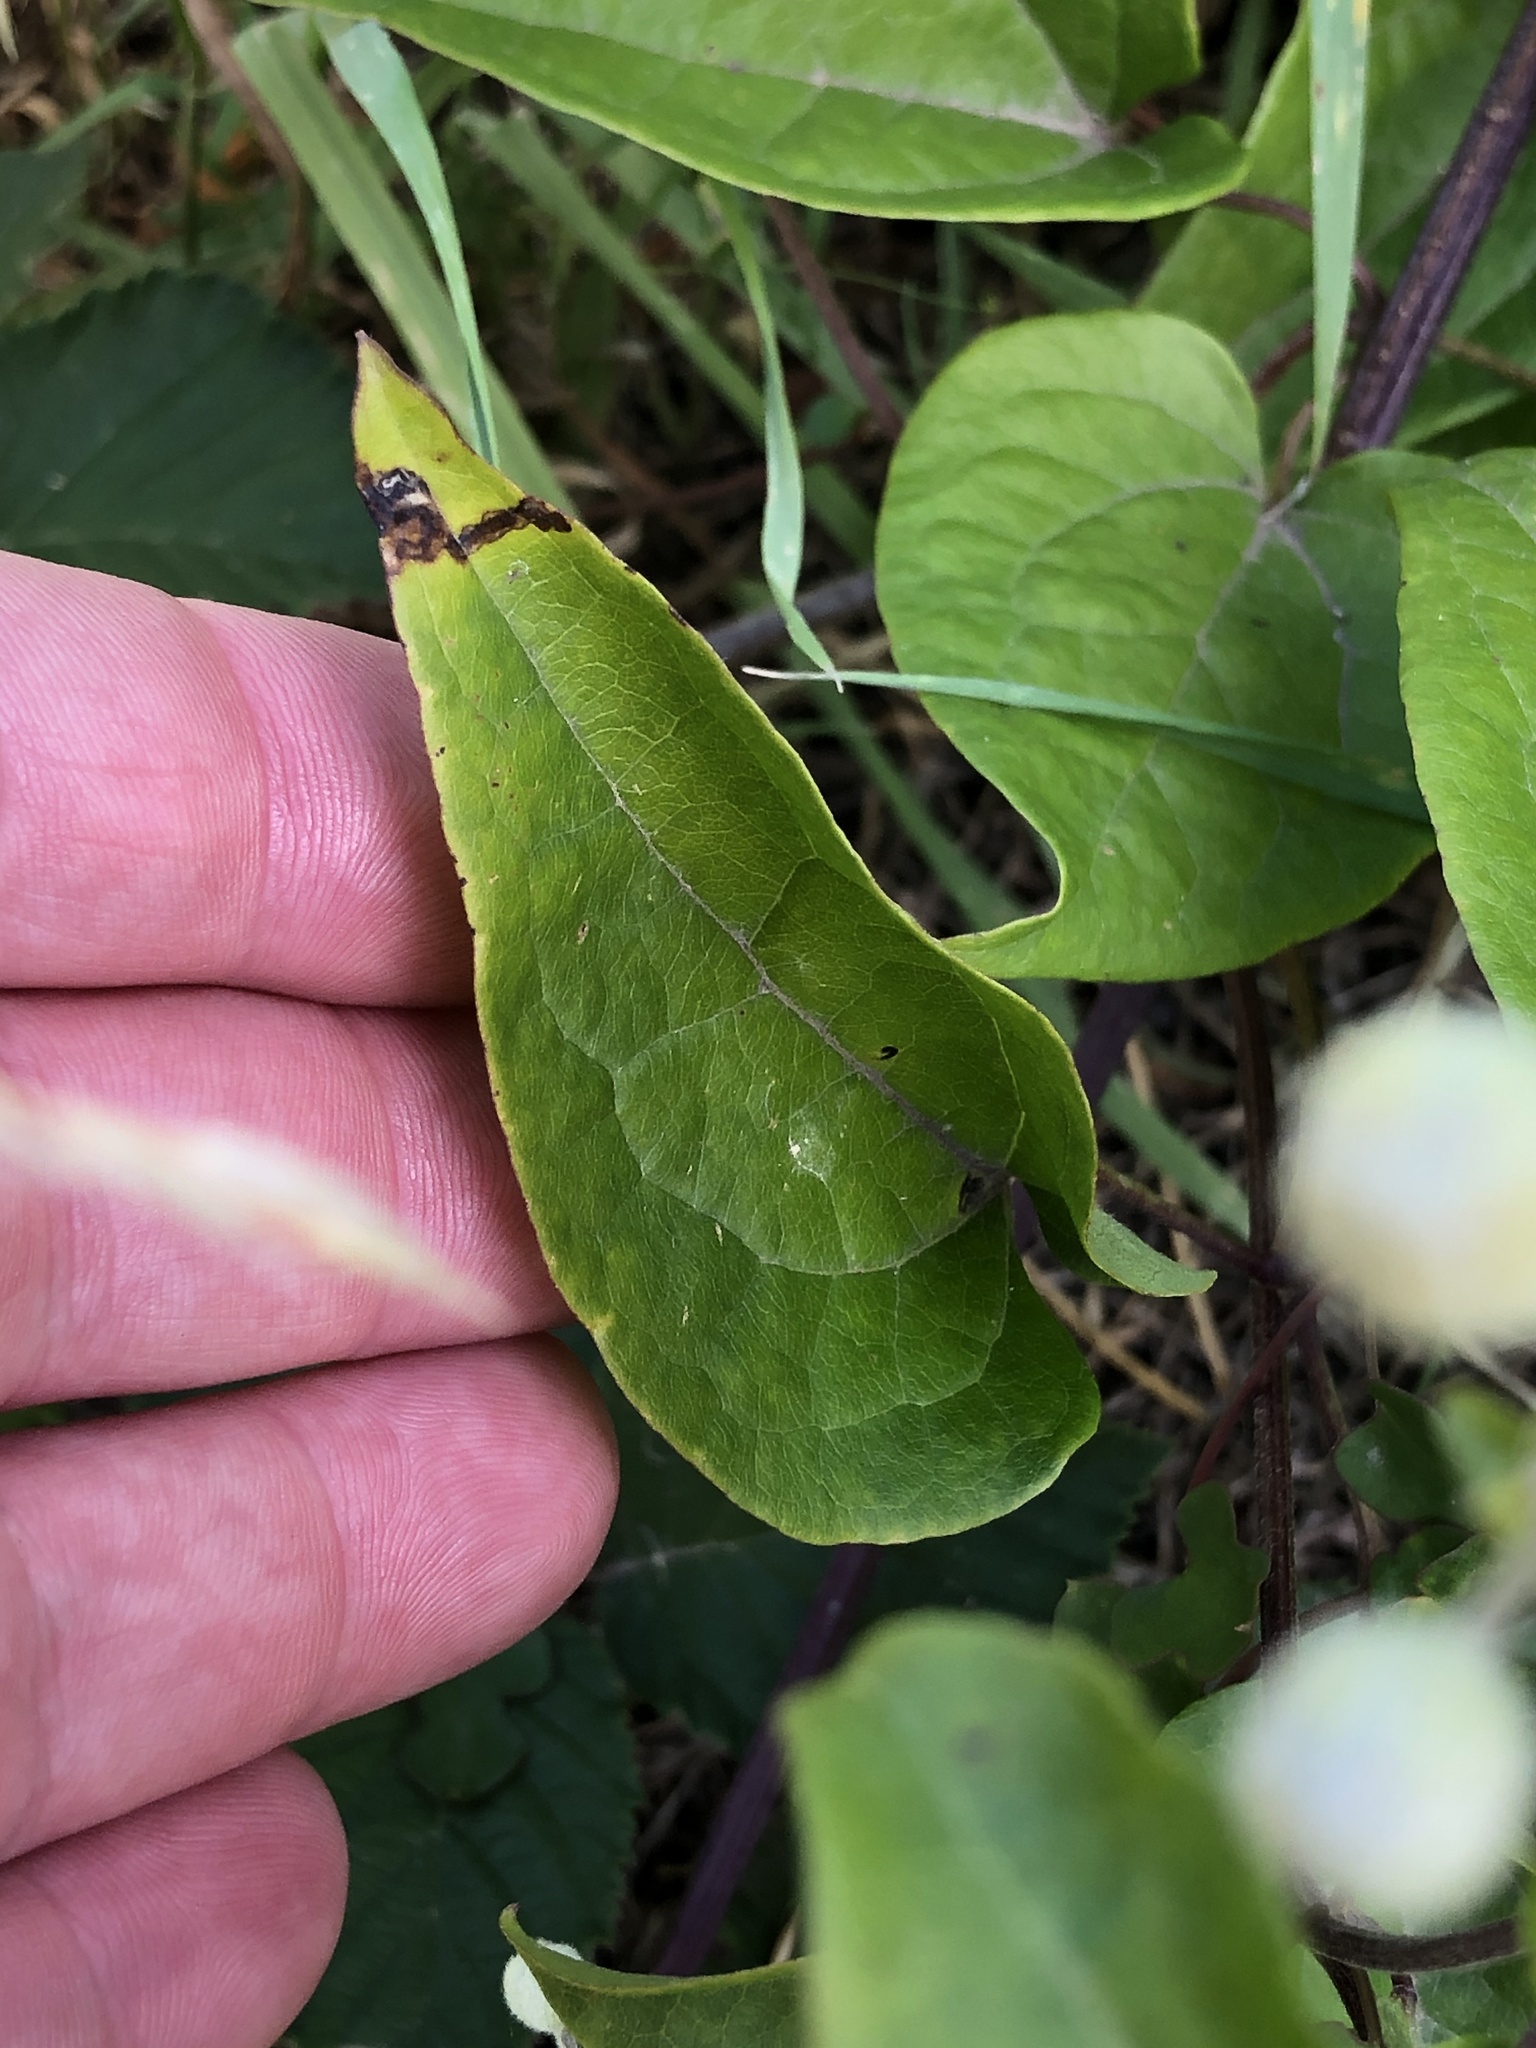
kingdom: Plantae
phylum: Tracheophyta
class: Magnoliopsida
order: Ranunculales
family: Ranunculaceae
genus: Clematis
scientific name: Clematis vitalba
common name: Evergreen clematis
